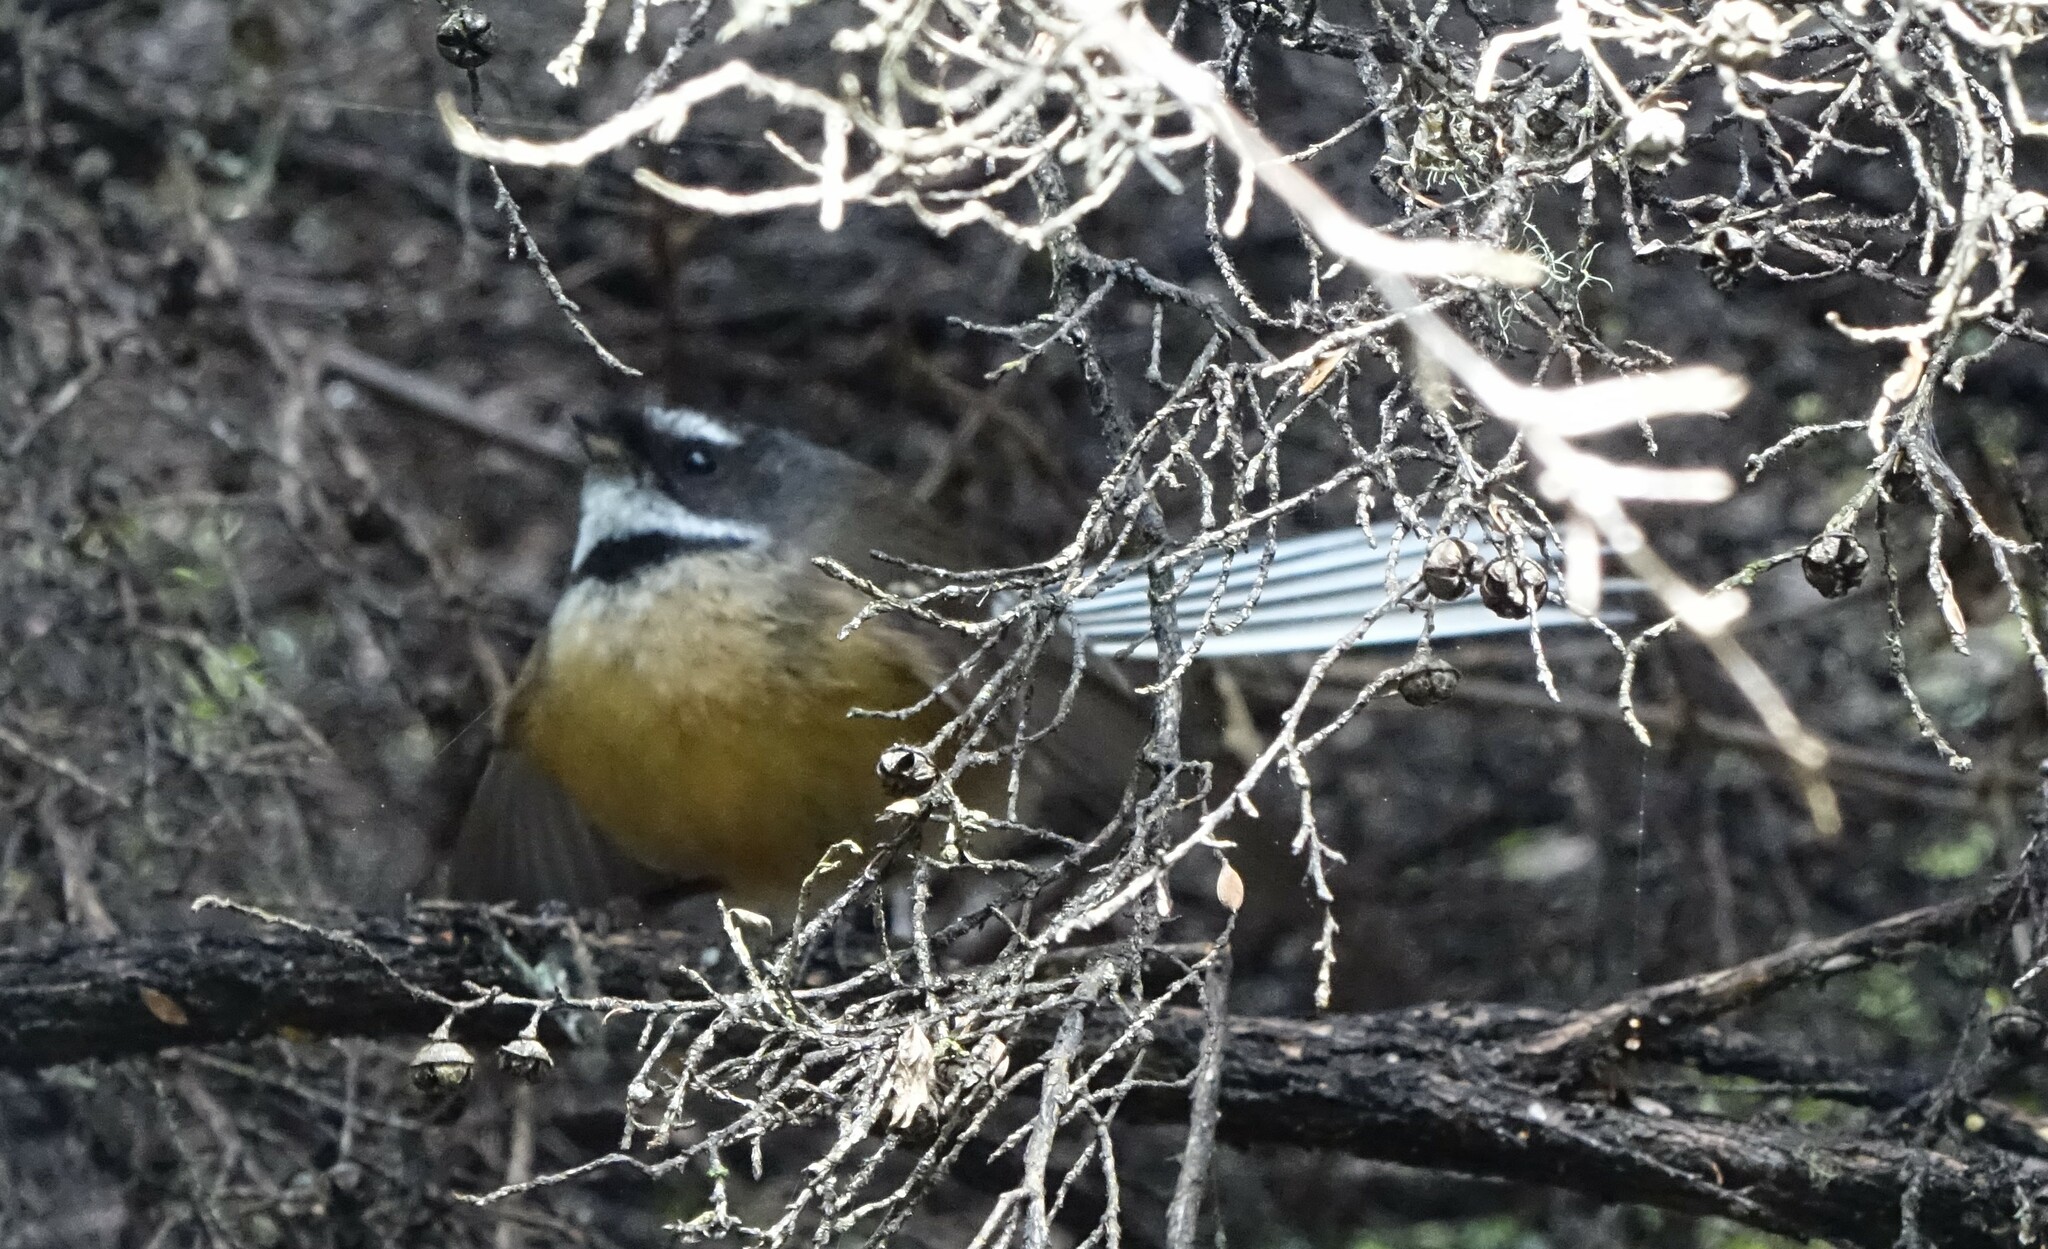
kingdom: Animalia
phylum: Chordata
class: Aves
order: Passeriformes
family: Rhipiduridae
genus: Rhipidura
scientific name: Rhipidura fuliginosa
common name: New zealand fantail
